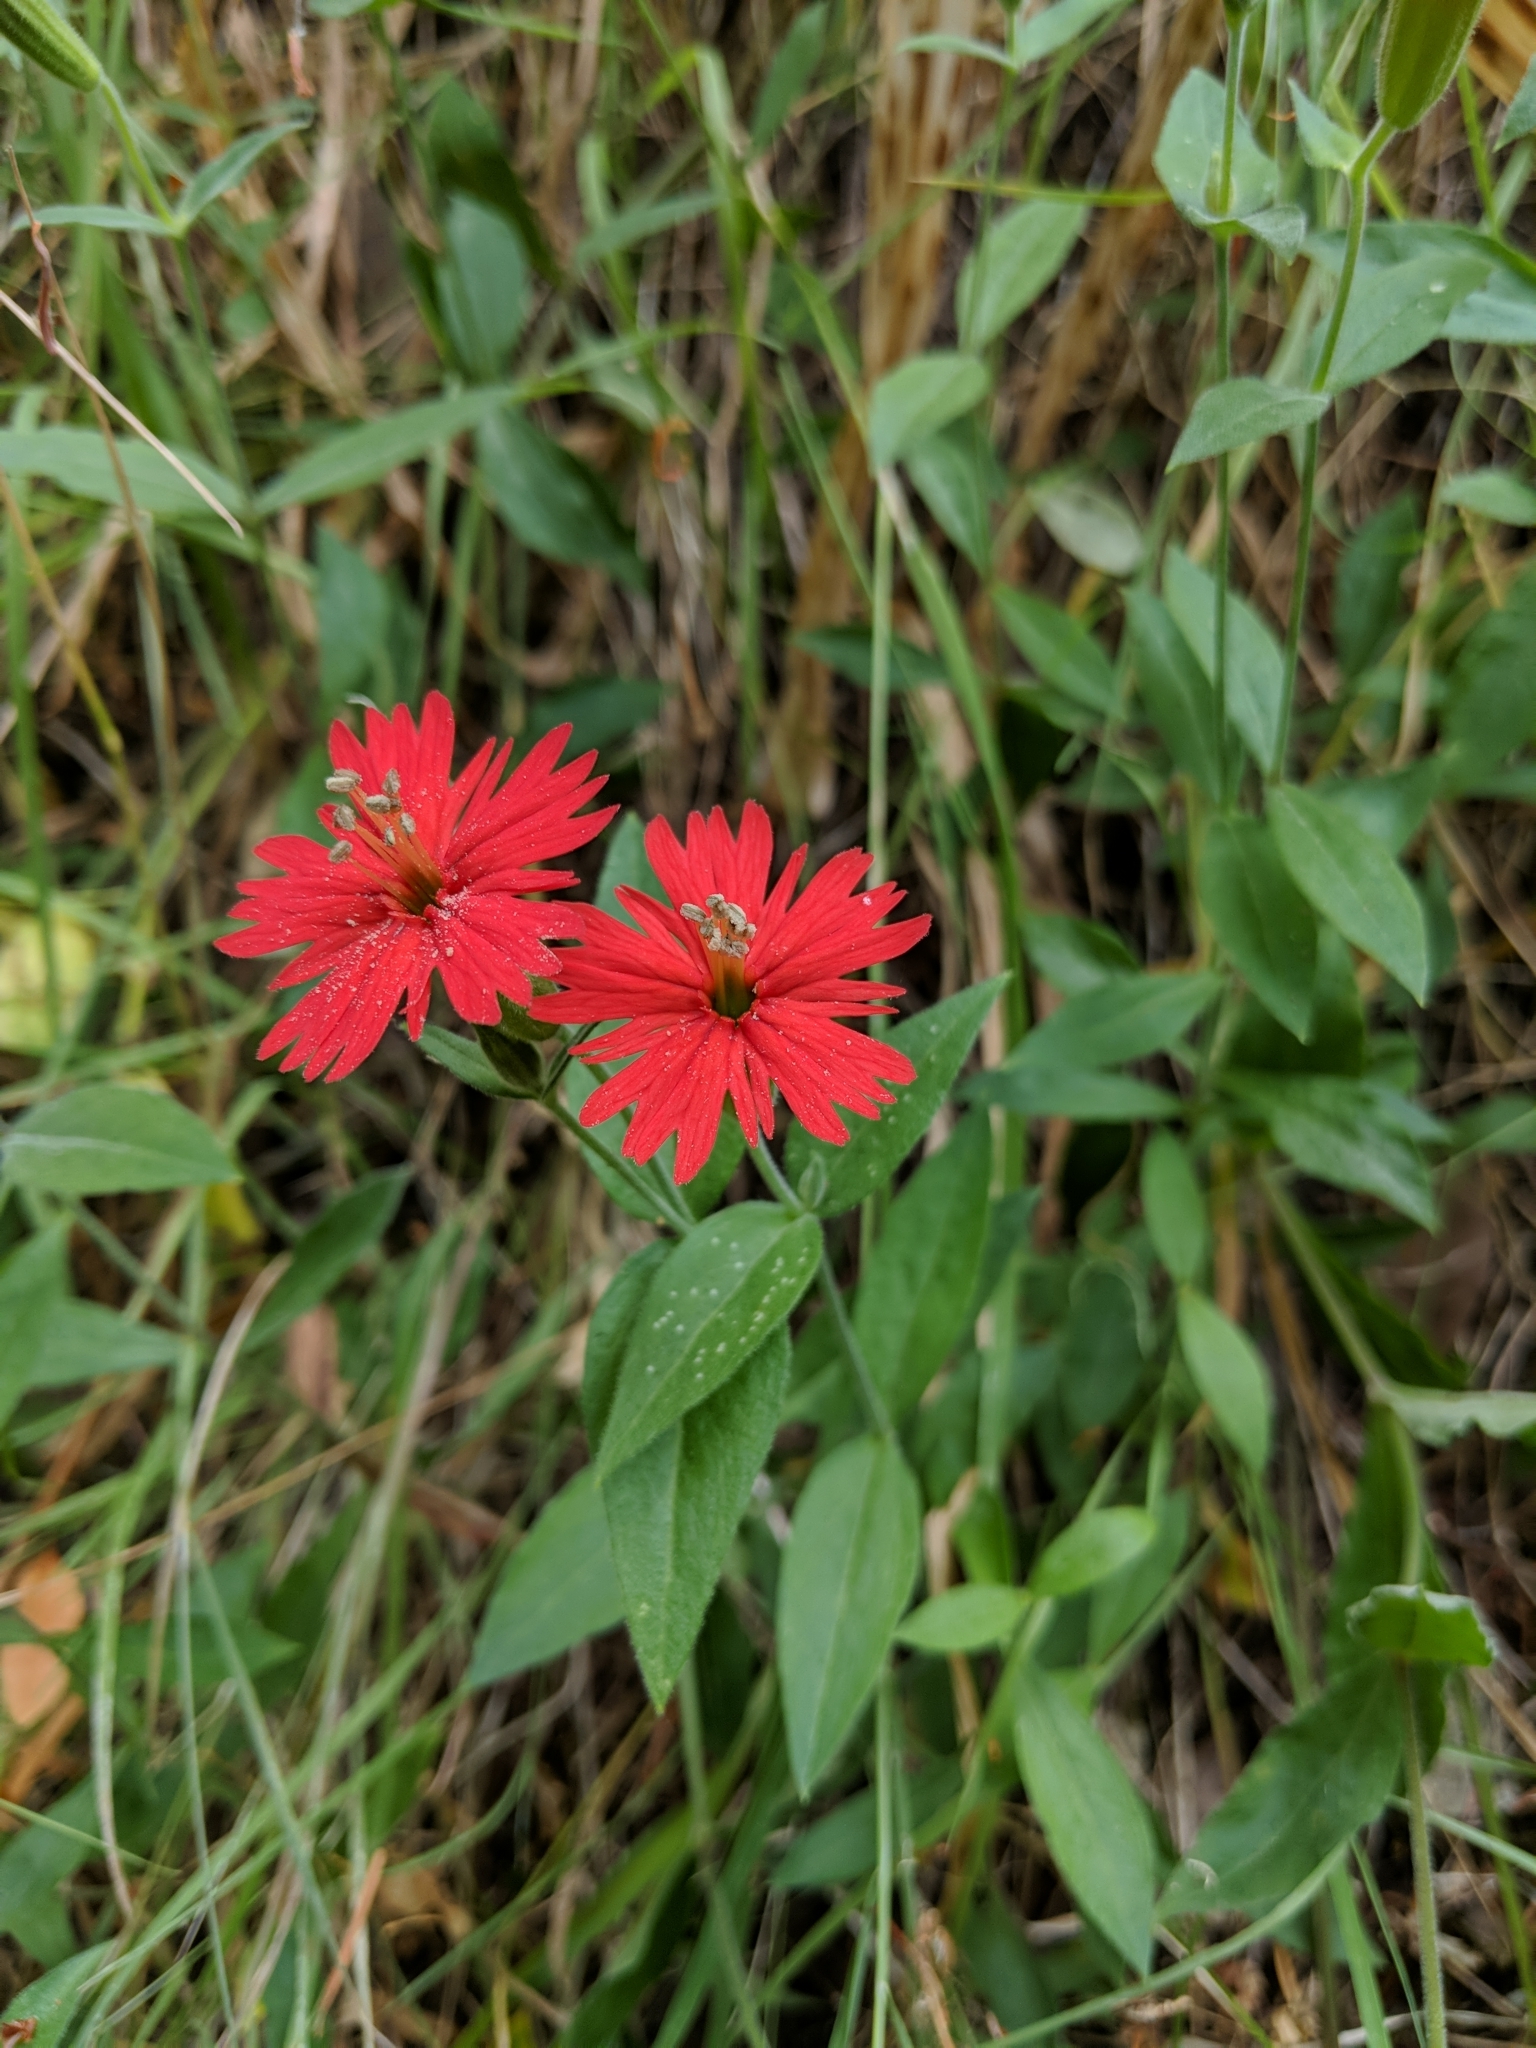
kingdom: Plantae
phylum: Tracheophyta
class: Magnoliopsida
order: Caryophyllales
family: Caryophyllaceae
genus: Silene
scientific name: Silene laciniata
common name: Indian-pink
